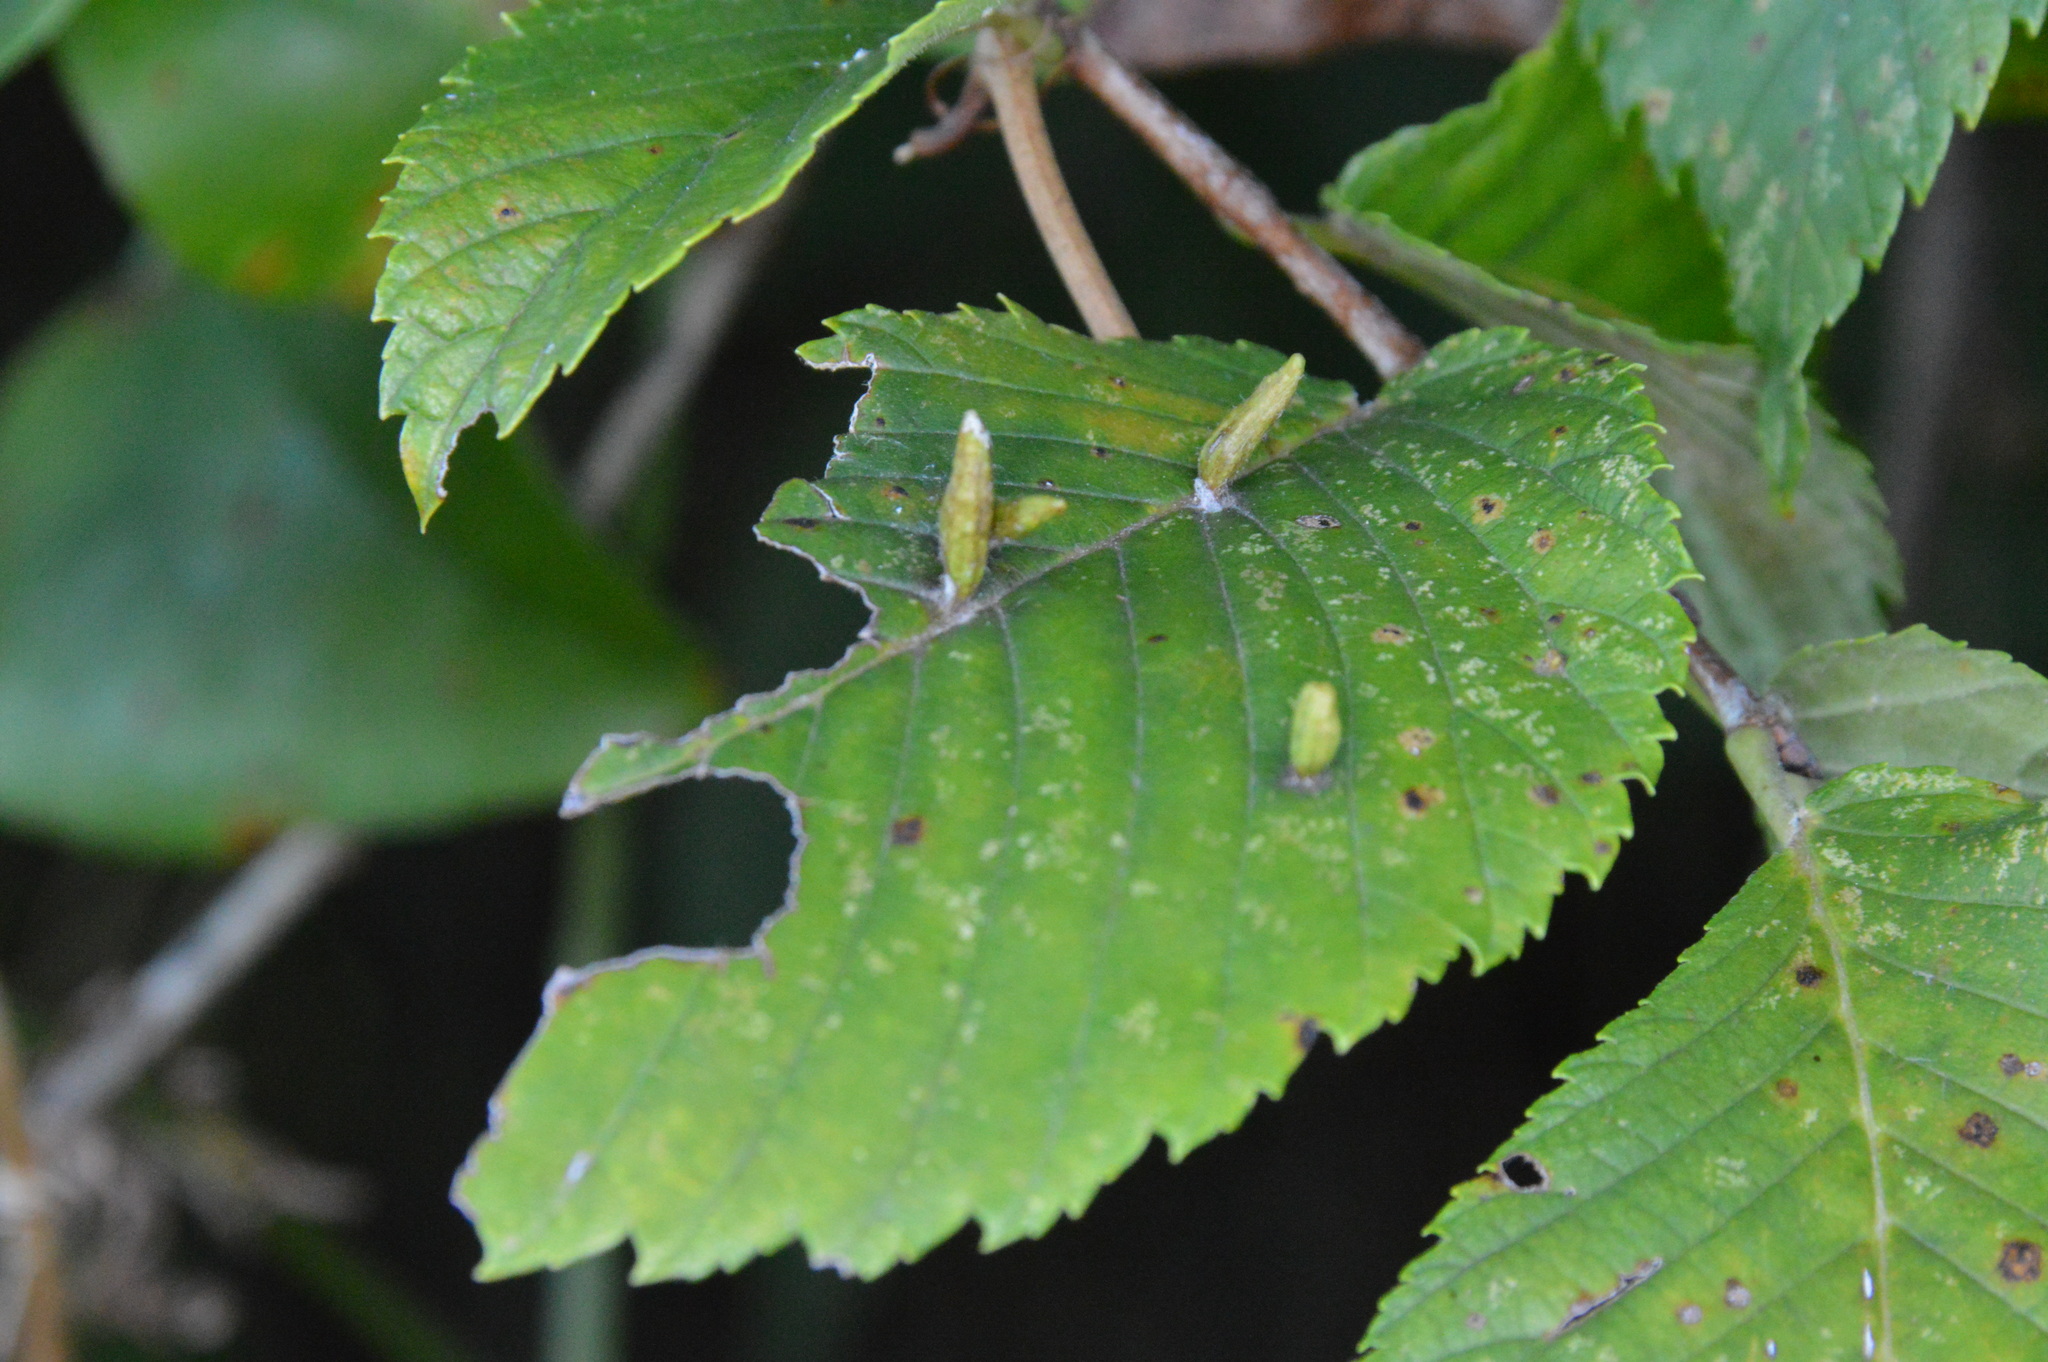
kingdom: Animalia
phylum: Arthropoda
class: Arachnida
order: Trombidiformes
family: Eriophyidae
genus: Aceria
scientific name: Aceria
